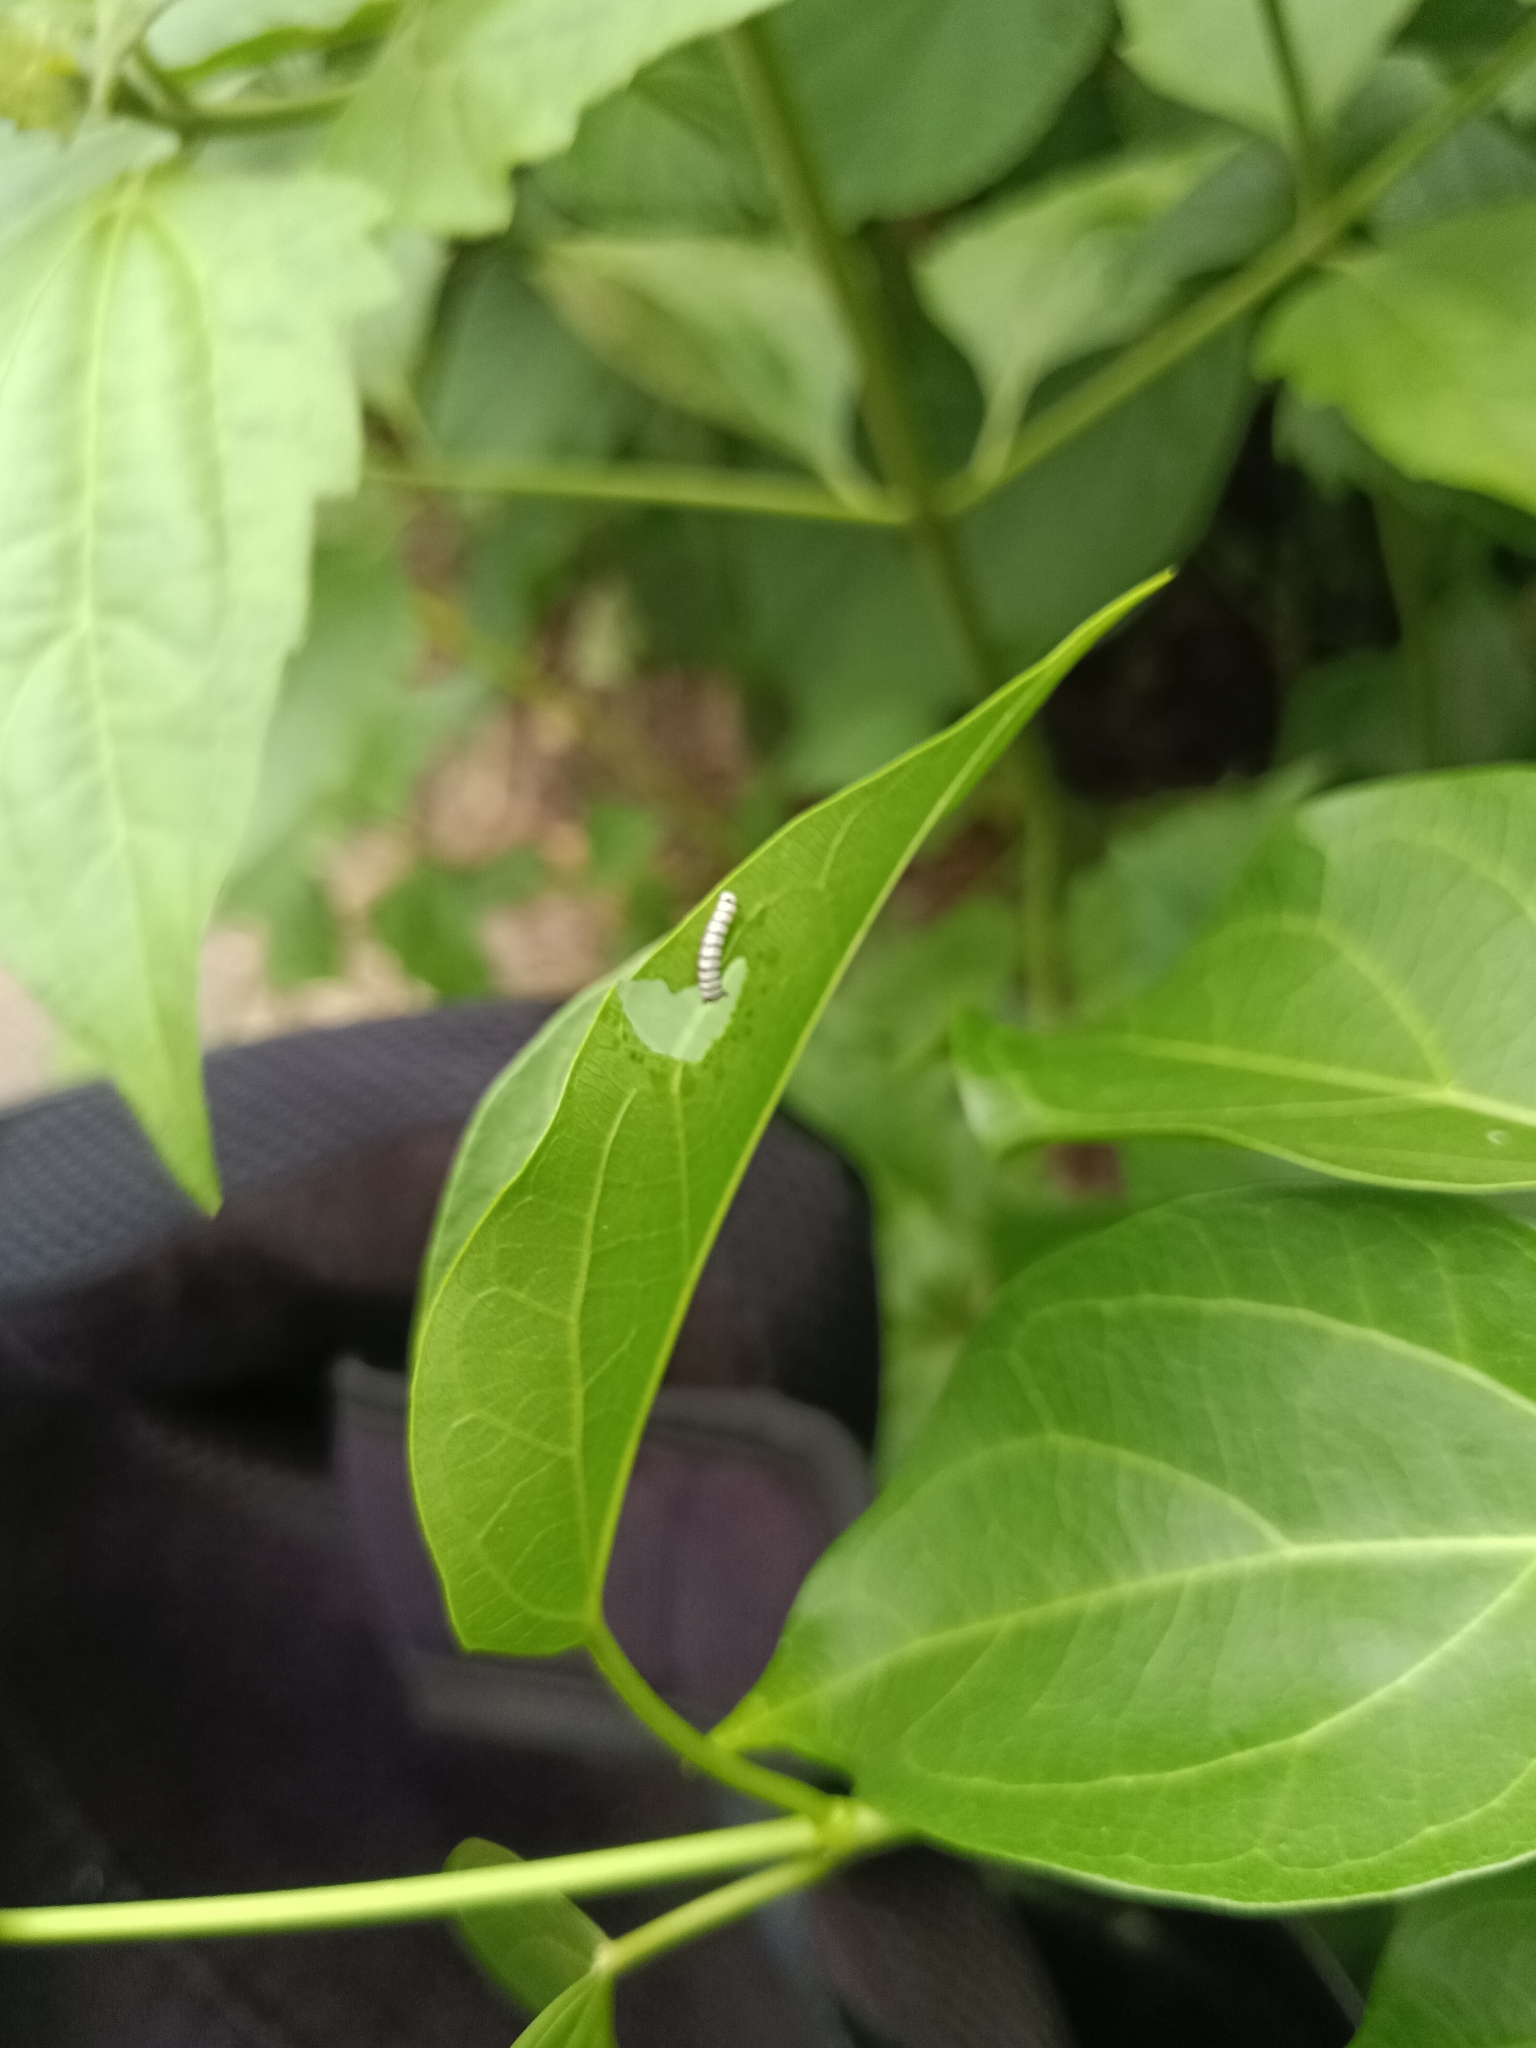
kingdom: Animalia
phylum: Arthropoda
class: Insecta
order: Lepidoptera
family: Nymphalidae
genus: Tirumala
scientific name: Tirumala limniace
